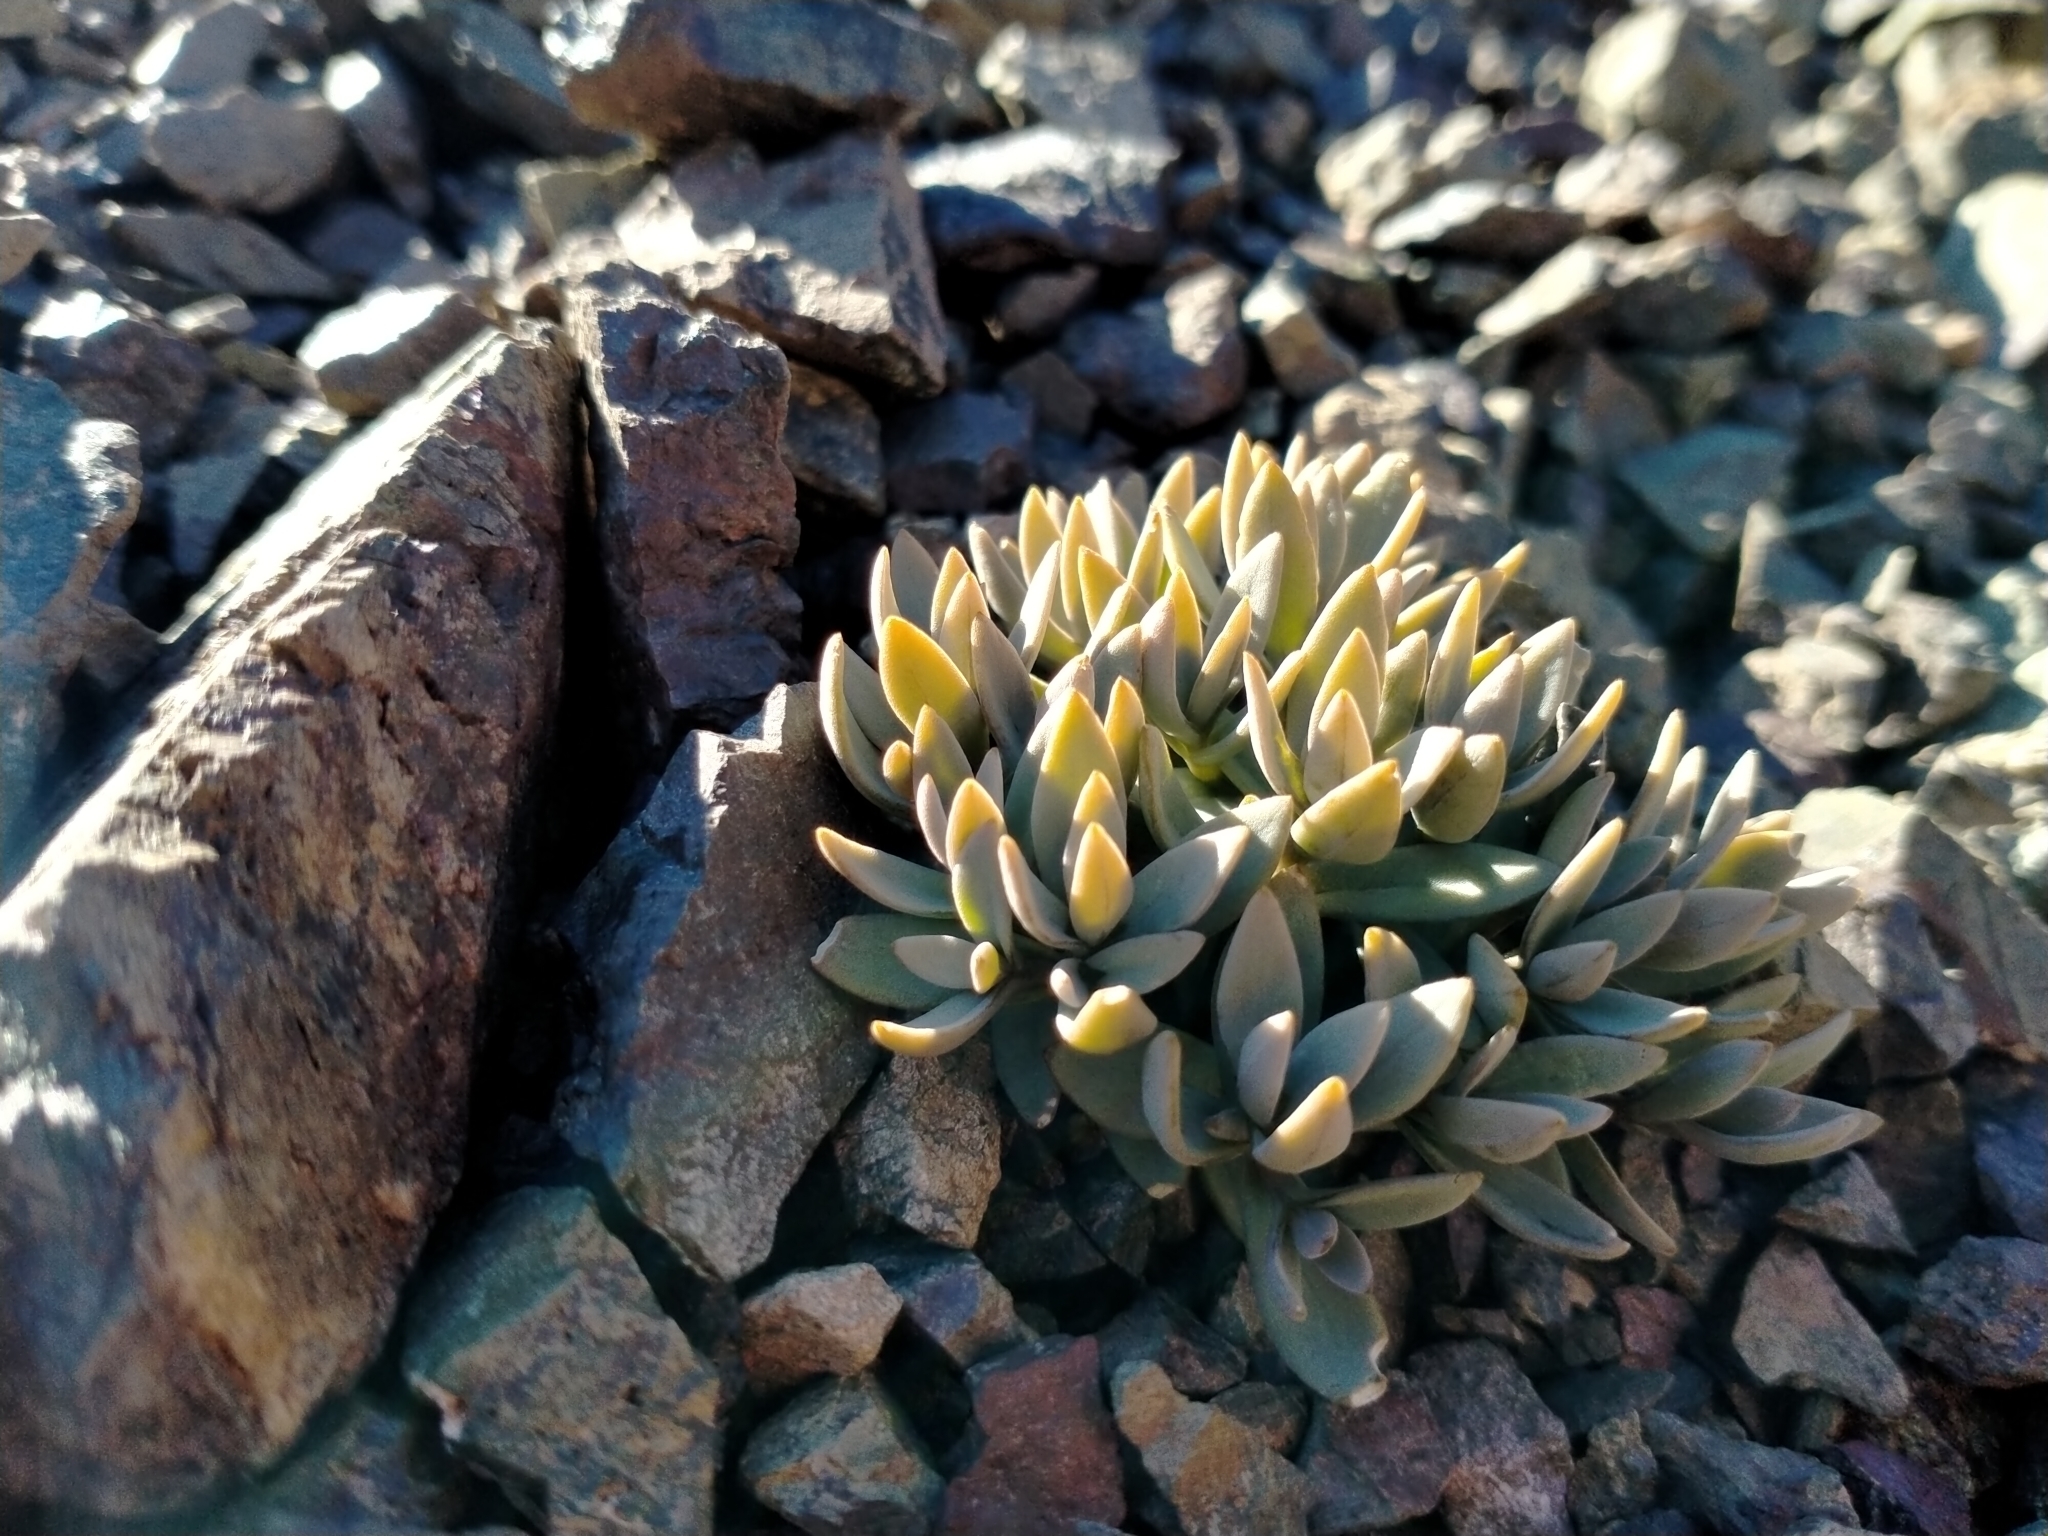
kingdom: Plantae
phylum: Tracheophyta
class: Magnoliopsida
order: Caryophyllales
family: Caryophyllaceae
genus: Stellaria
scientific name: Stellaria roughii
